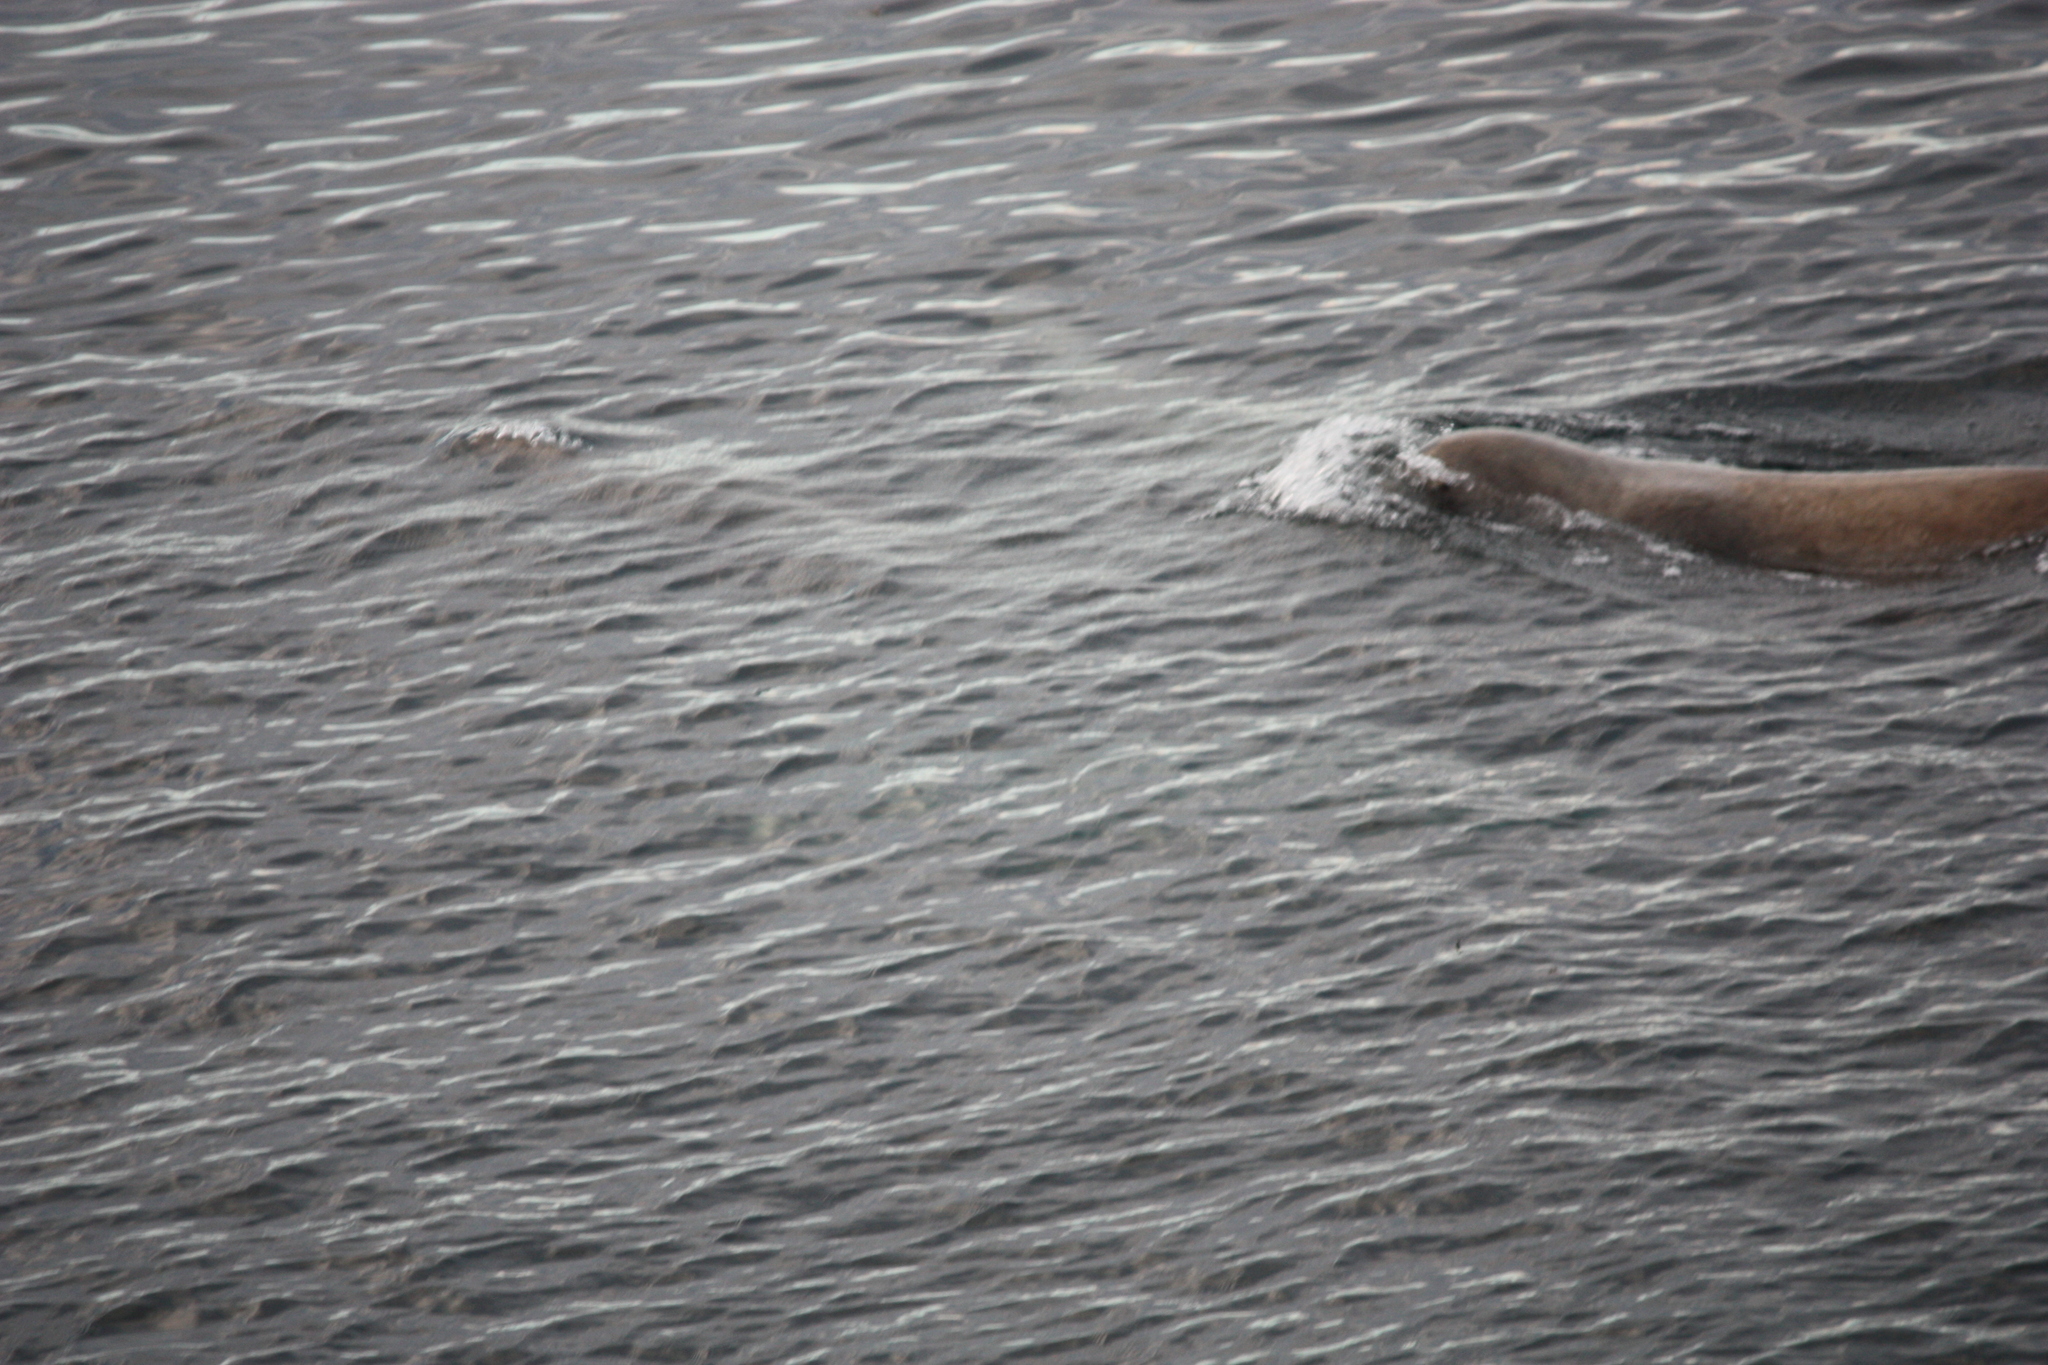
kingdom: Animalia
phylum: Chordata
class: Mammalia
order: Carnivora
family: Otariidae
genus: Eumetopias
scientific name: Eumetopias jubatus
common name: Steller sea lion
